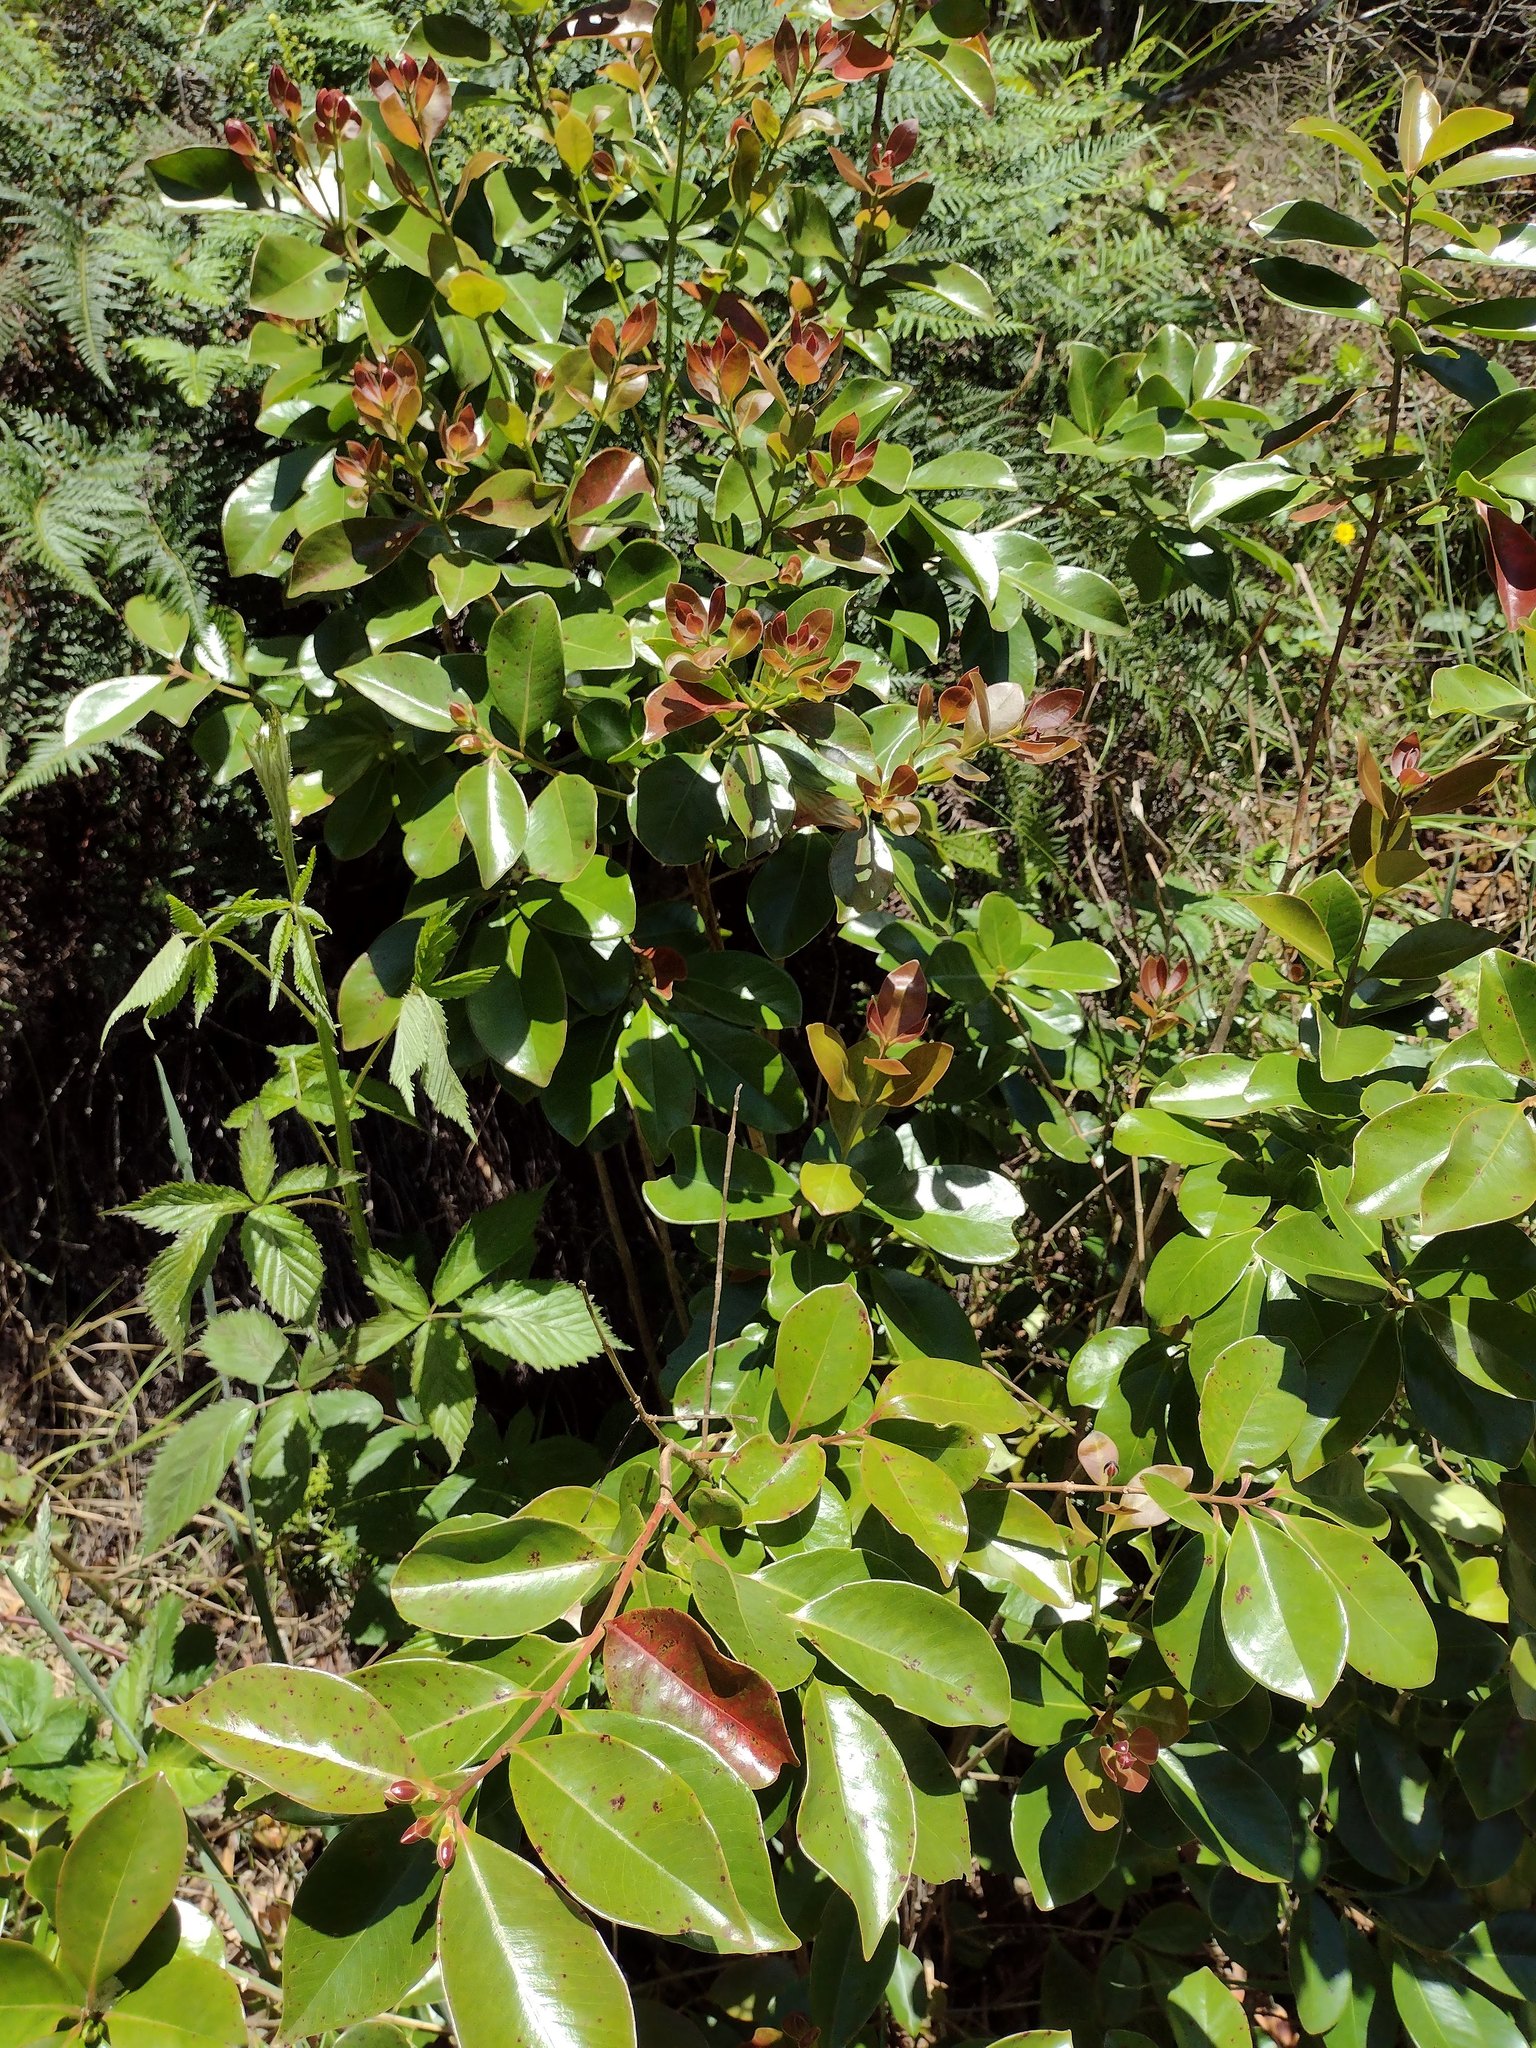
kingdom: Plantae
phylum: Tracheophyta
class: Magnoliopsida
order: Myrtales
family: Myrtaceae
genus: Psidium
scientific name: Psidium cattleianum
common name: Strawberry guava
